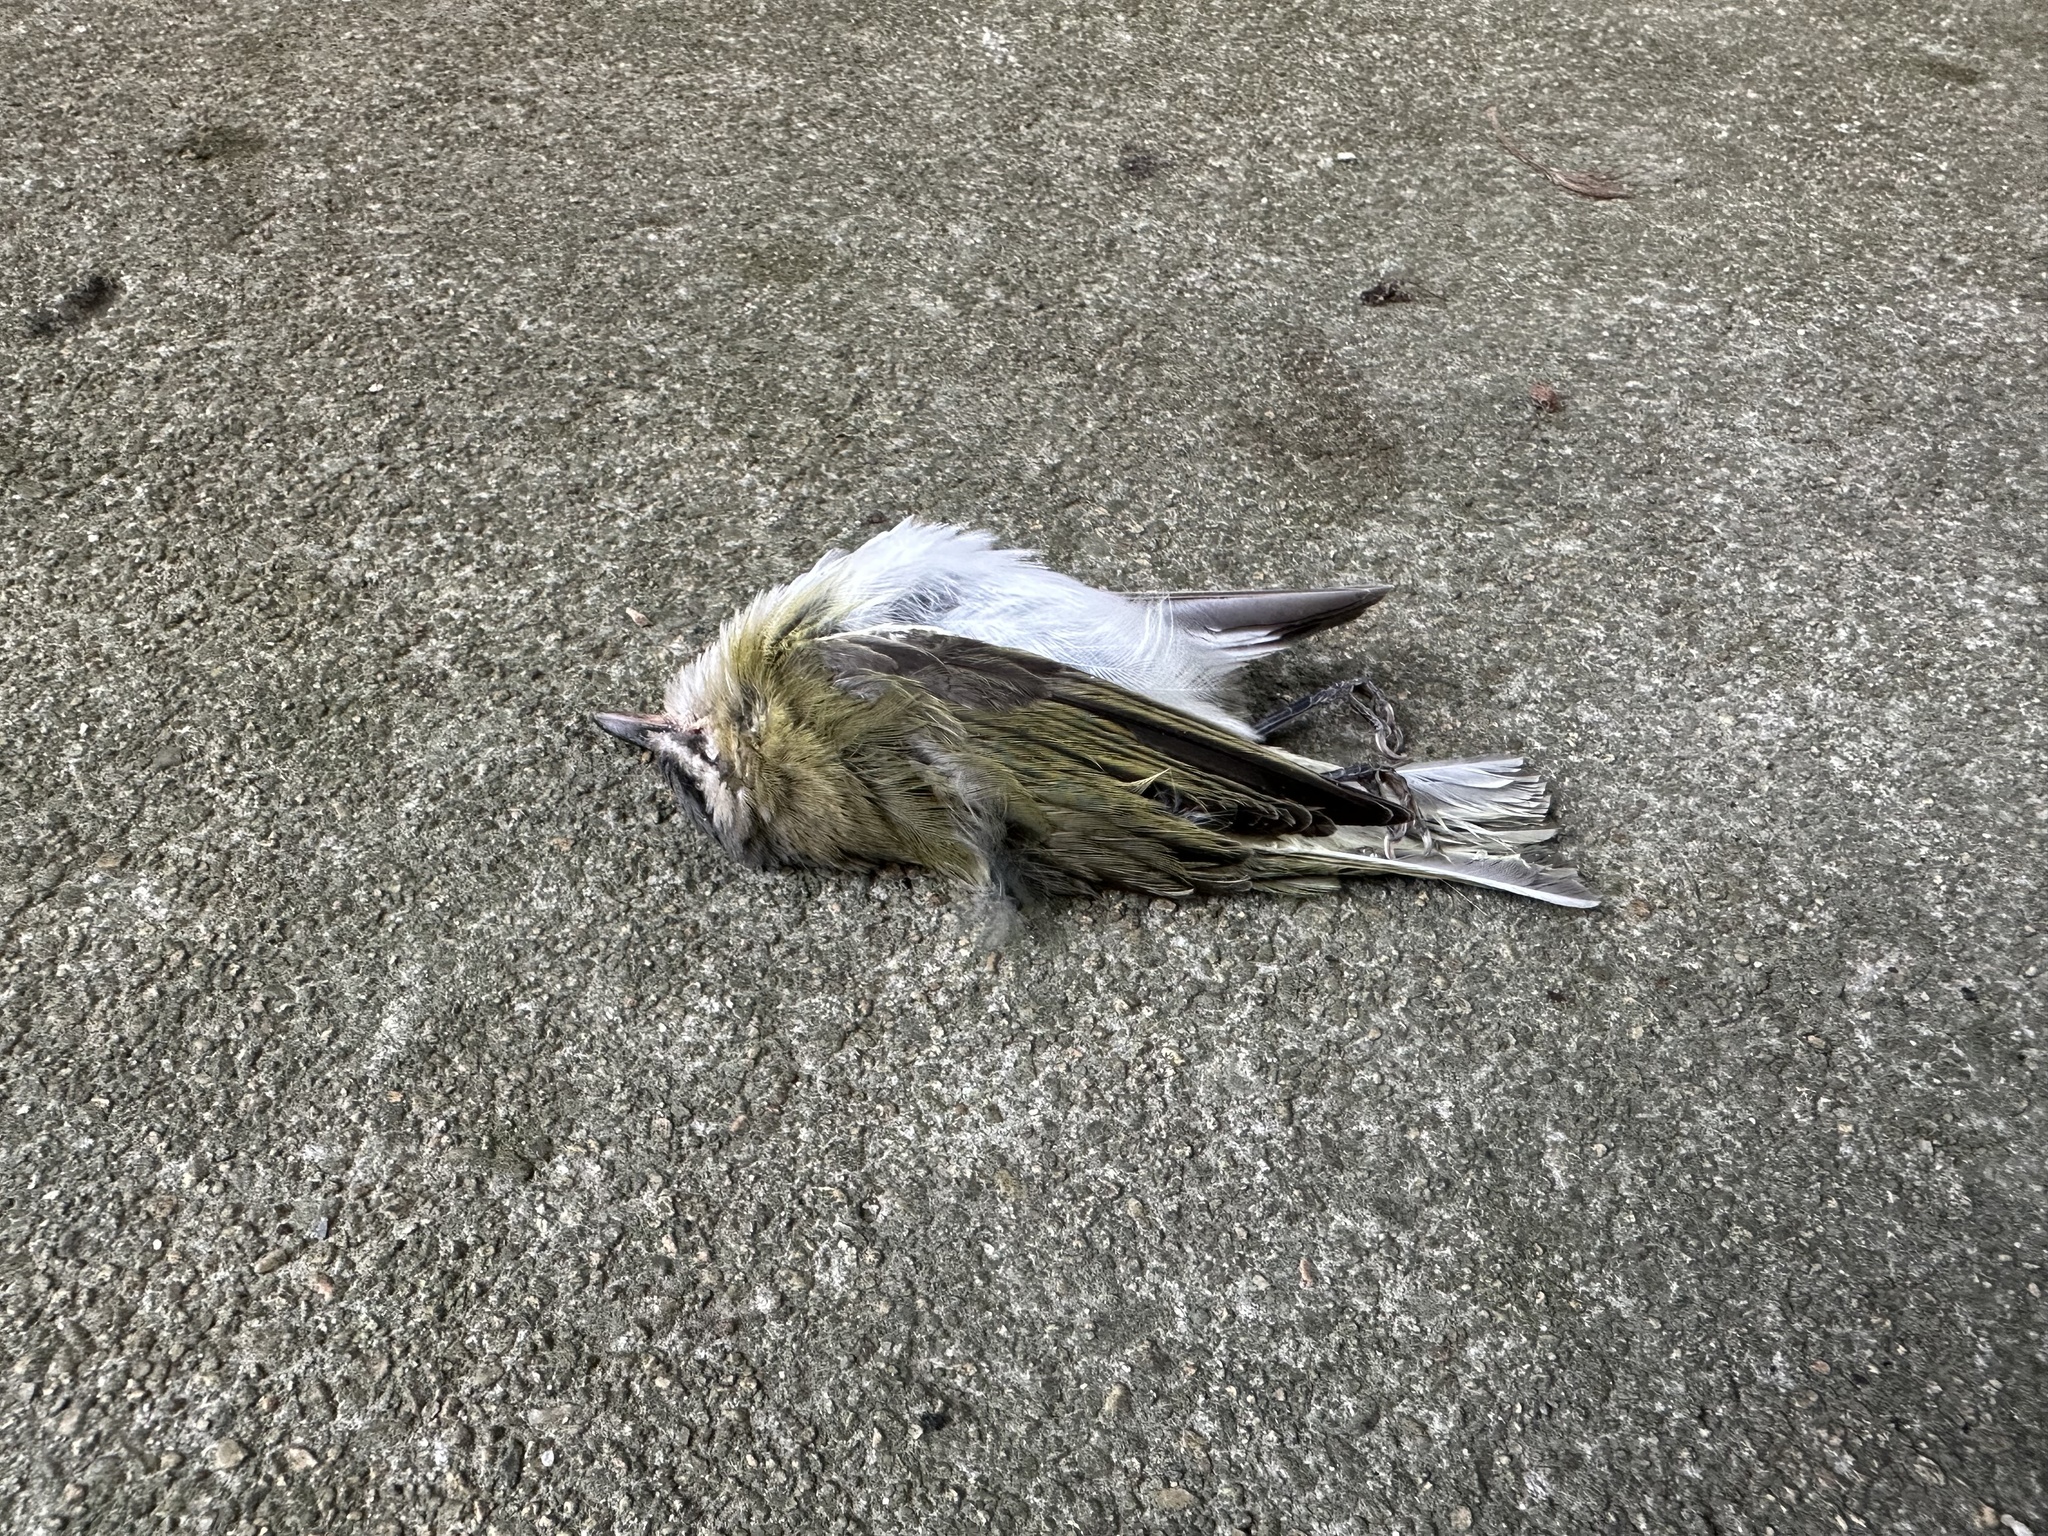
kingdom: Animalia
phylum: Chordata
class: Aves
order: Passeriformes
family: Vireonidae
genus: Vireo
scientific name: Vireo olivaceus
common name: Red-eyed vireo
